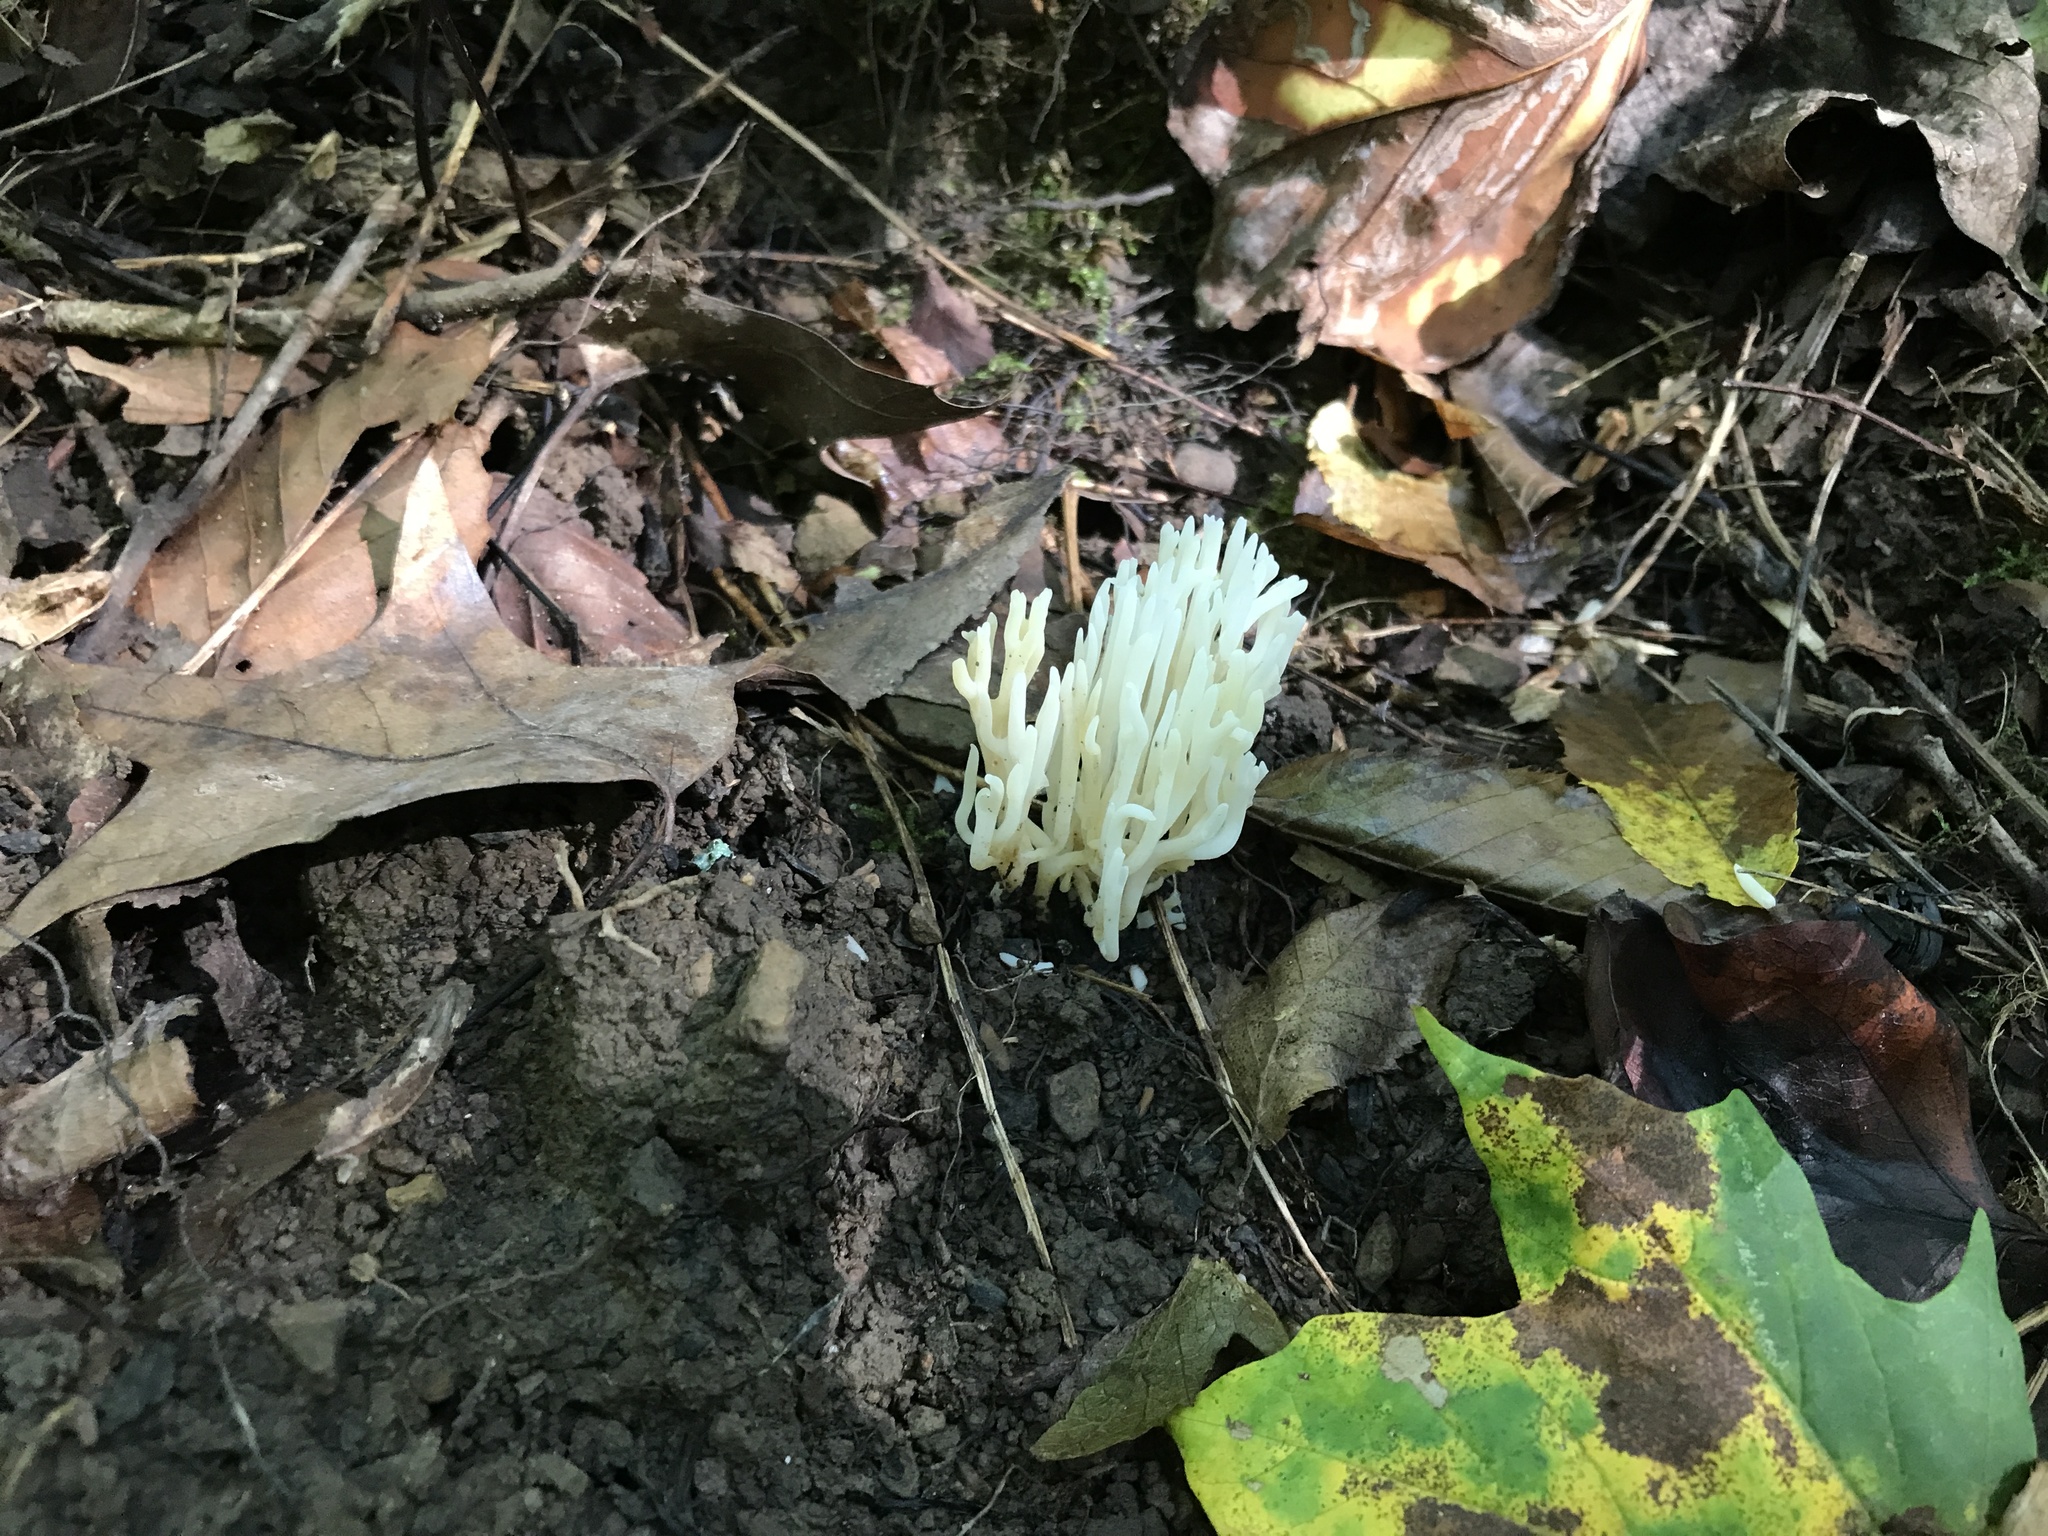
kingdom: Fungi
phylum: Basidiomycota
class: Agaricomycetes
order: Agaricales
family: Clavariaceae
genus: Ramariopsis
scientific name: Ramariopsis kunzei
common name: Ivory coral
